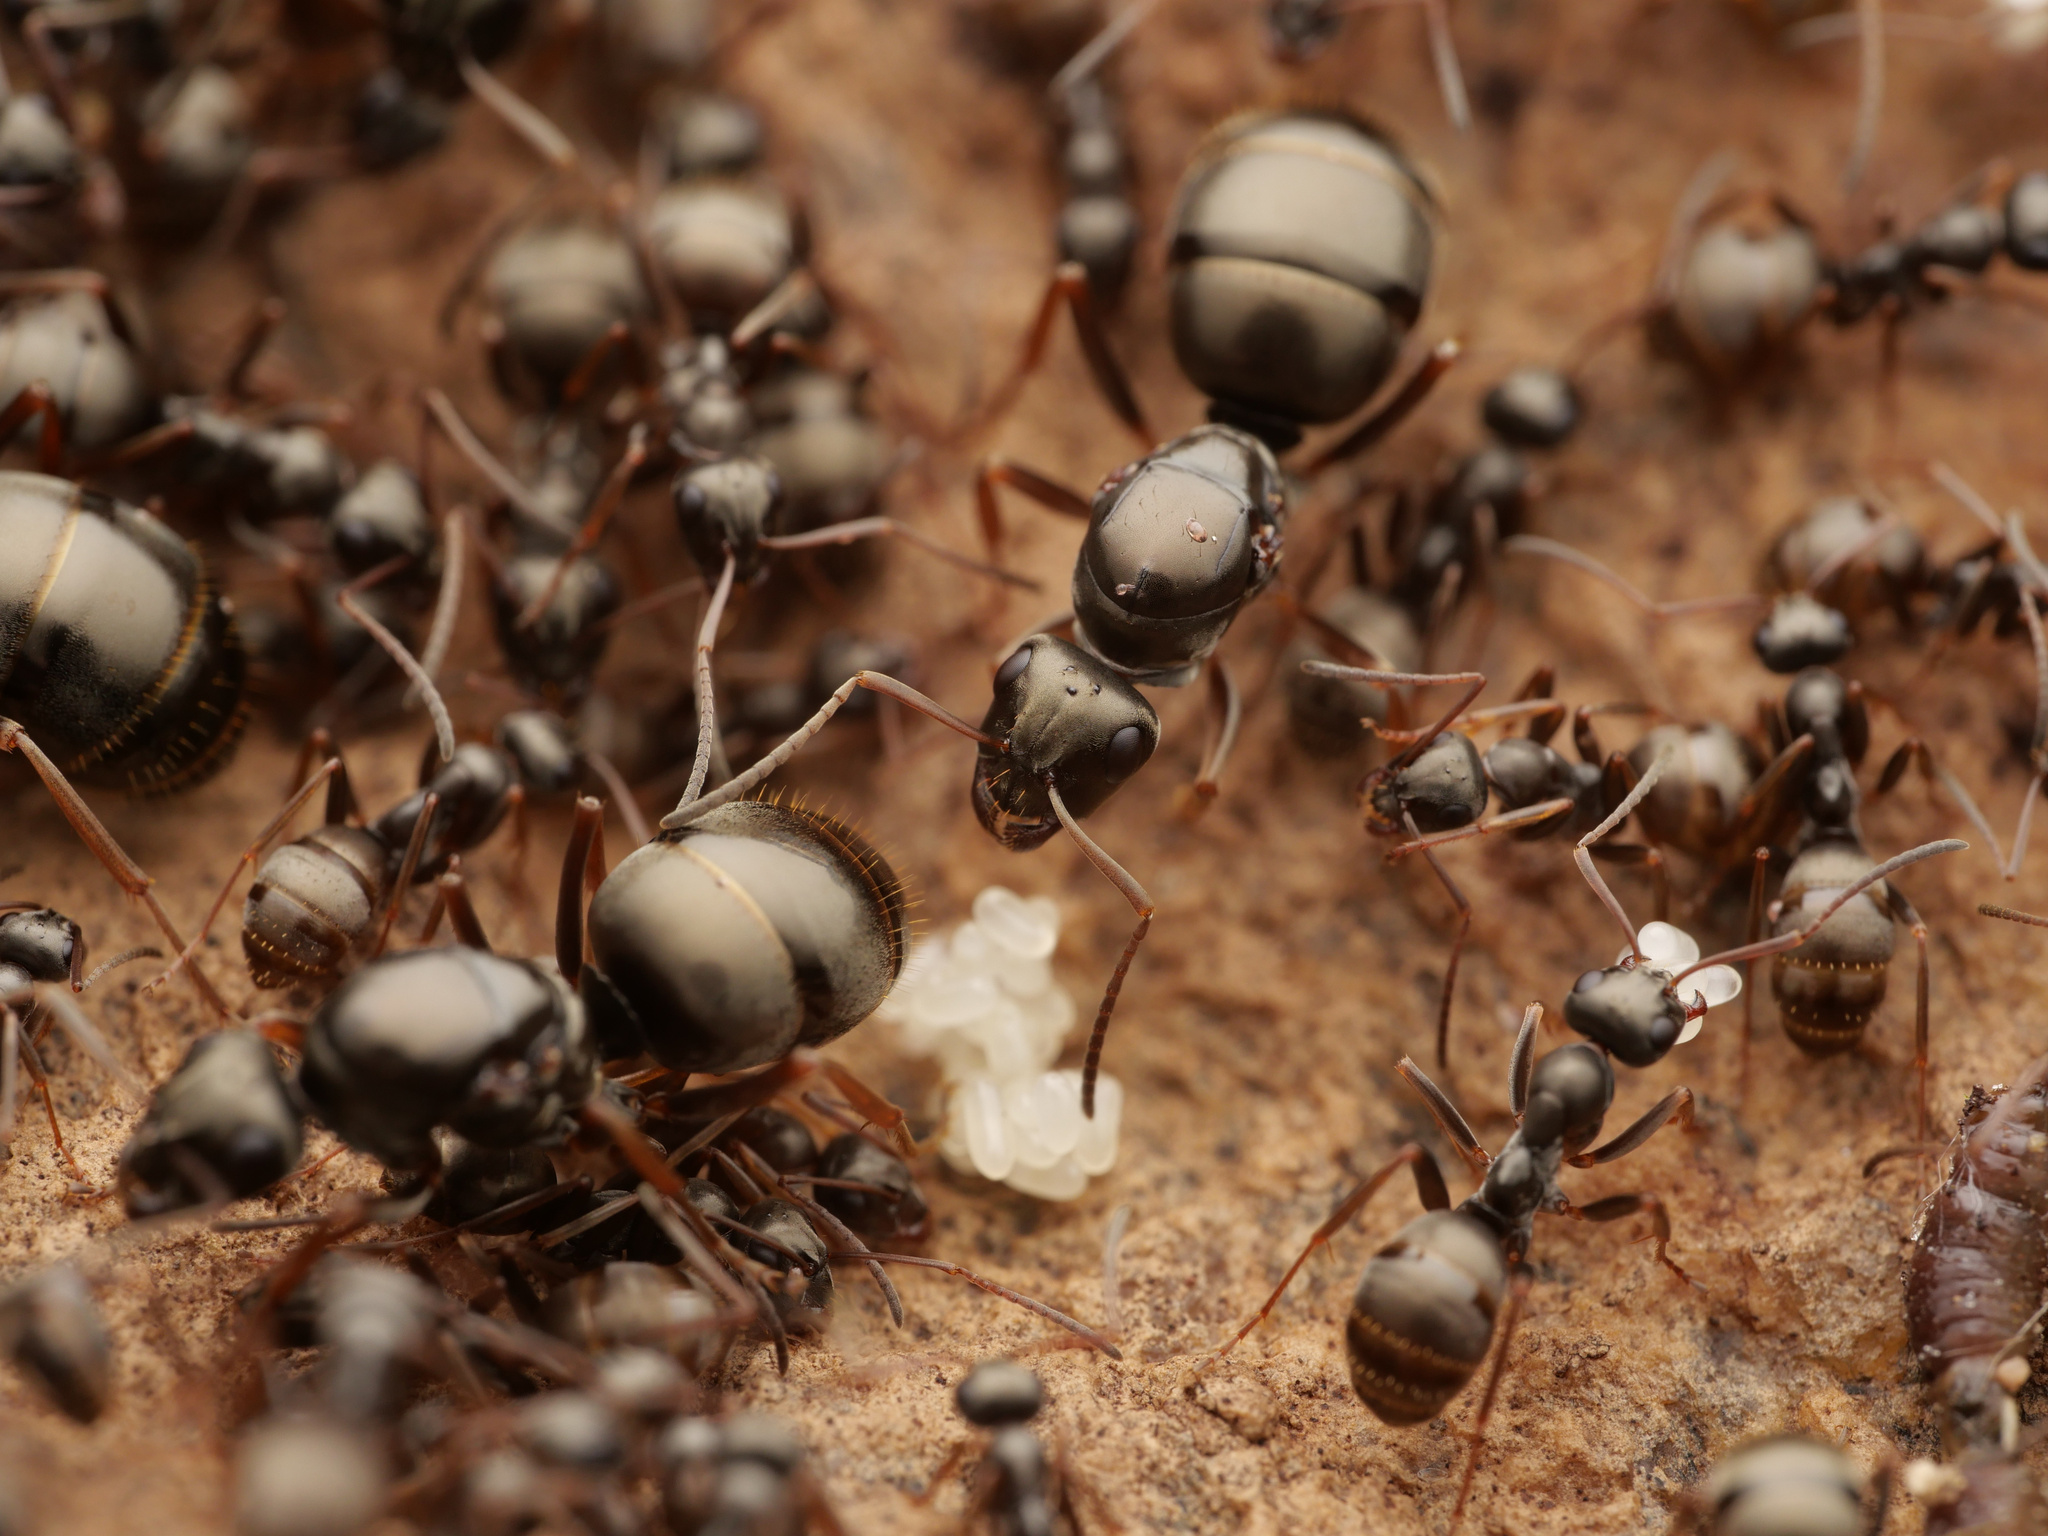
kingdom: Animalia
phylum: Arthropoda
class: Insecta
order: Hymenoptera
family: Formicidae
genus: Formica
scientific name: Formica fusca
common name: Silky ant
